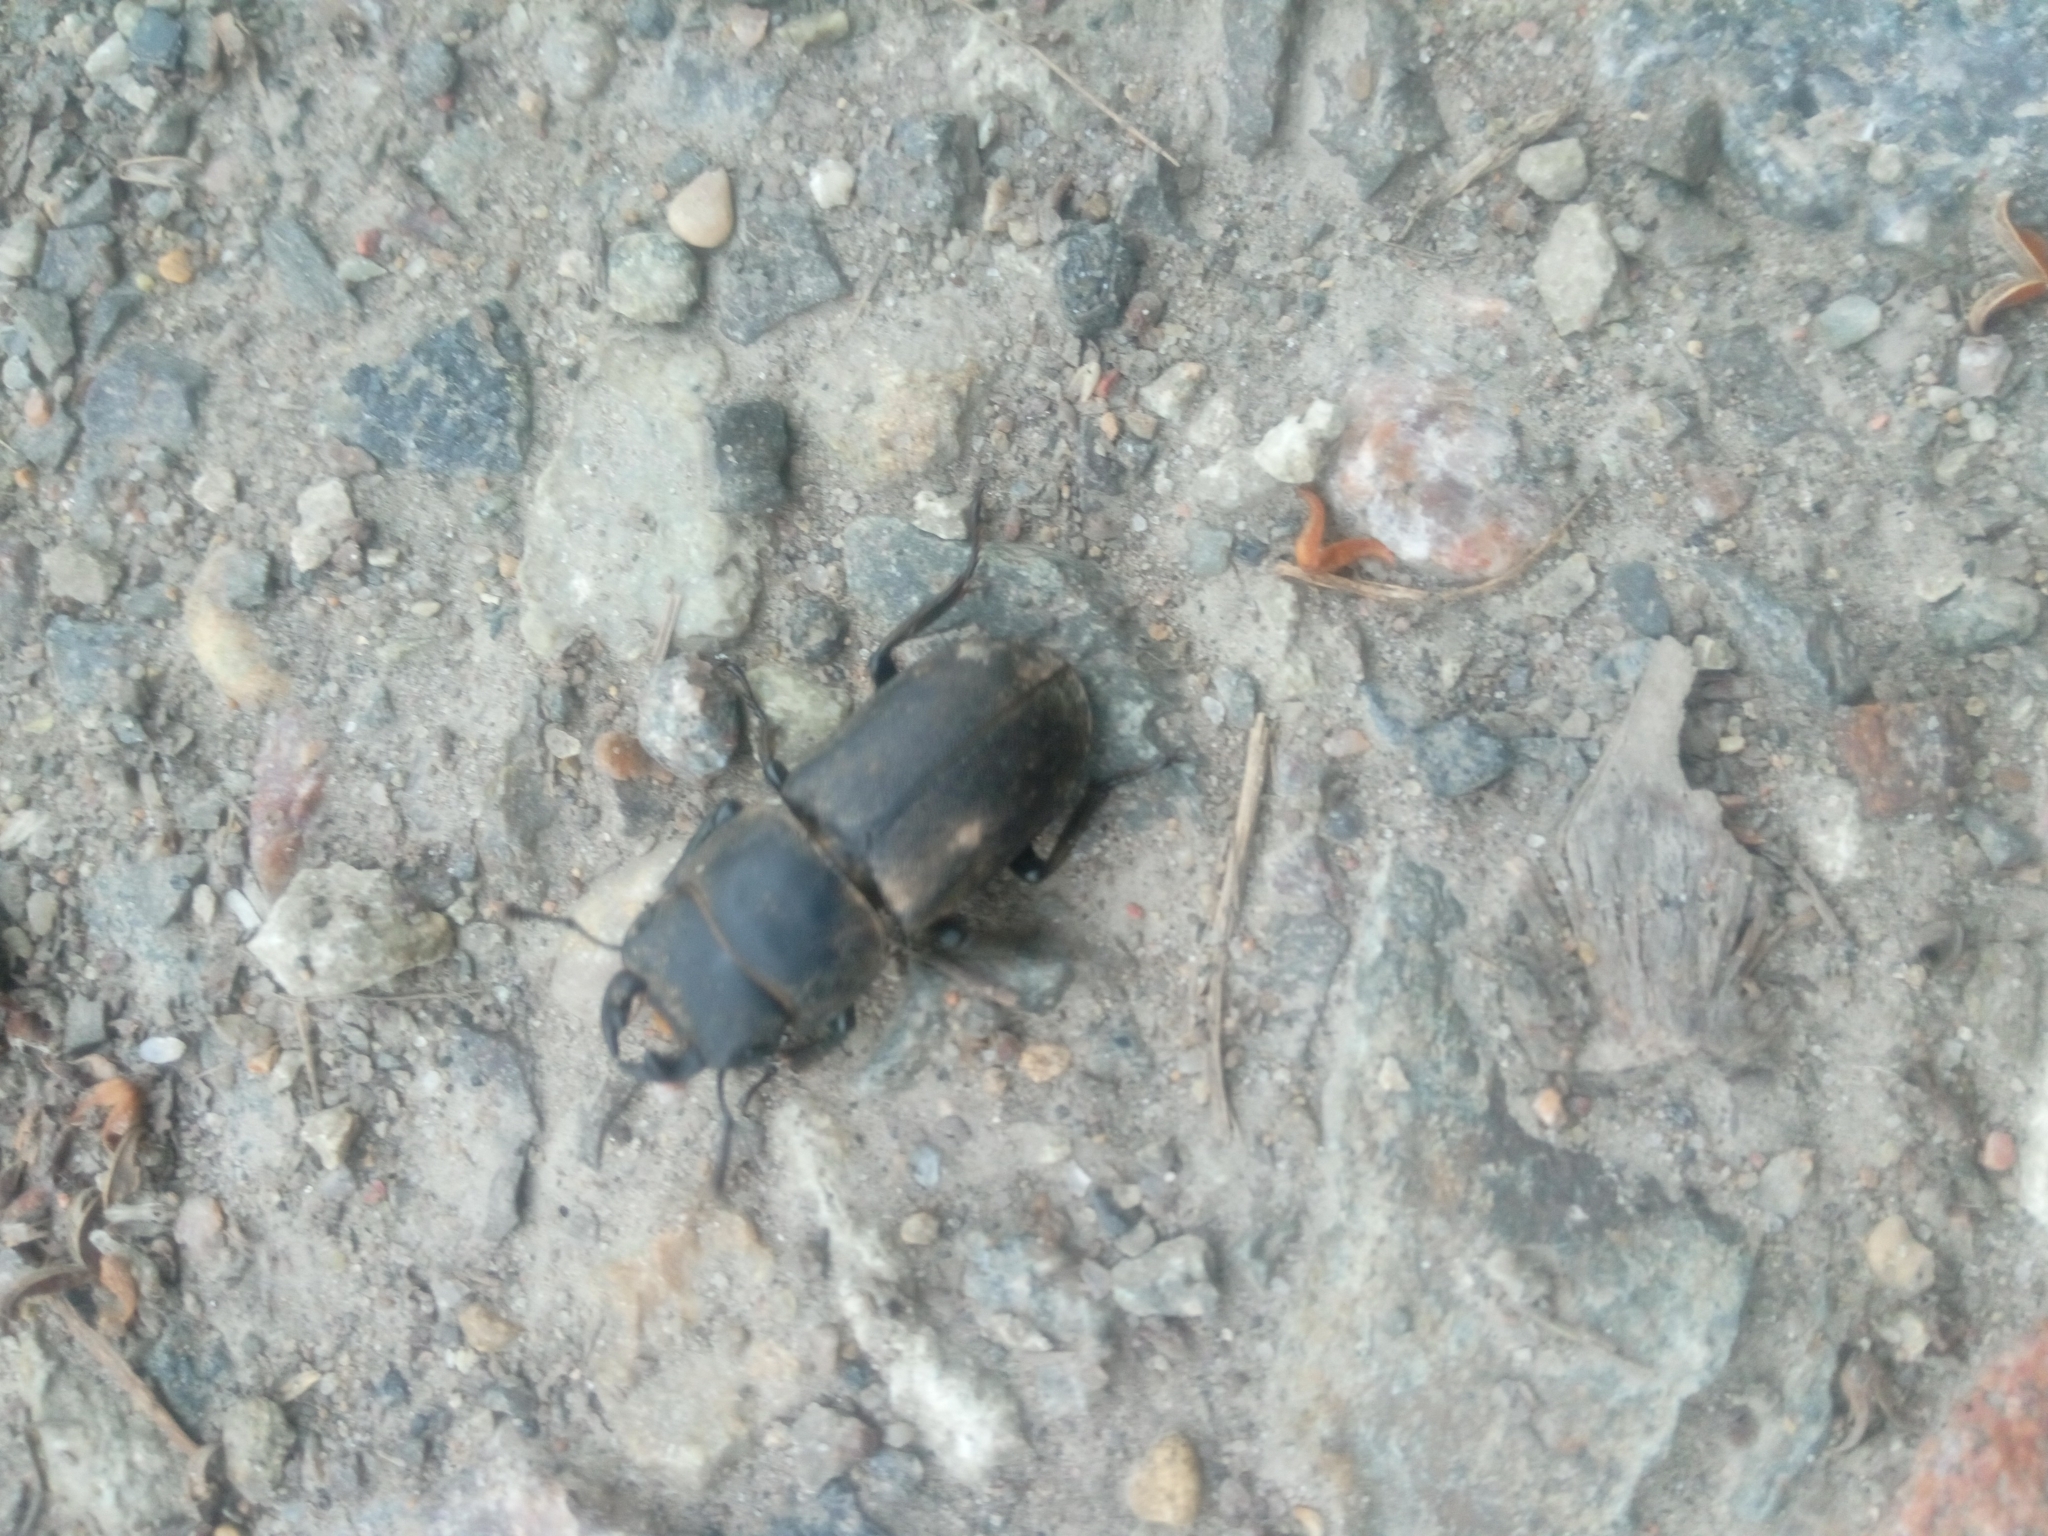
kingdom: Animalia
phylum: Arthropoda
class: Insecta
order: Coleoptera
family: Lucanidae
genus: Dorcus
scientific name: Dorcus parallelipipedus
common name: Lesser stag beetle
